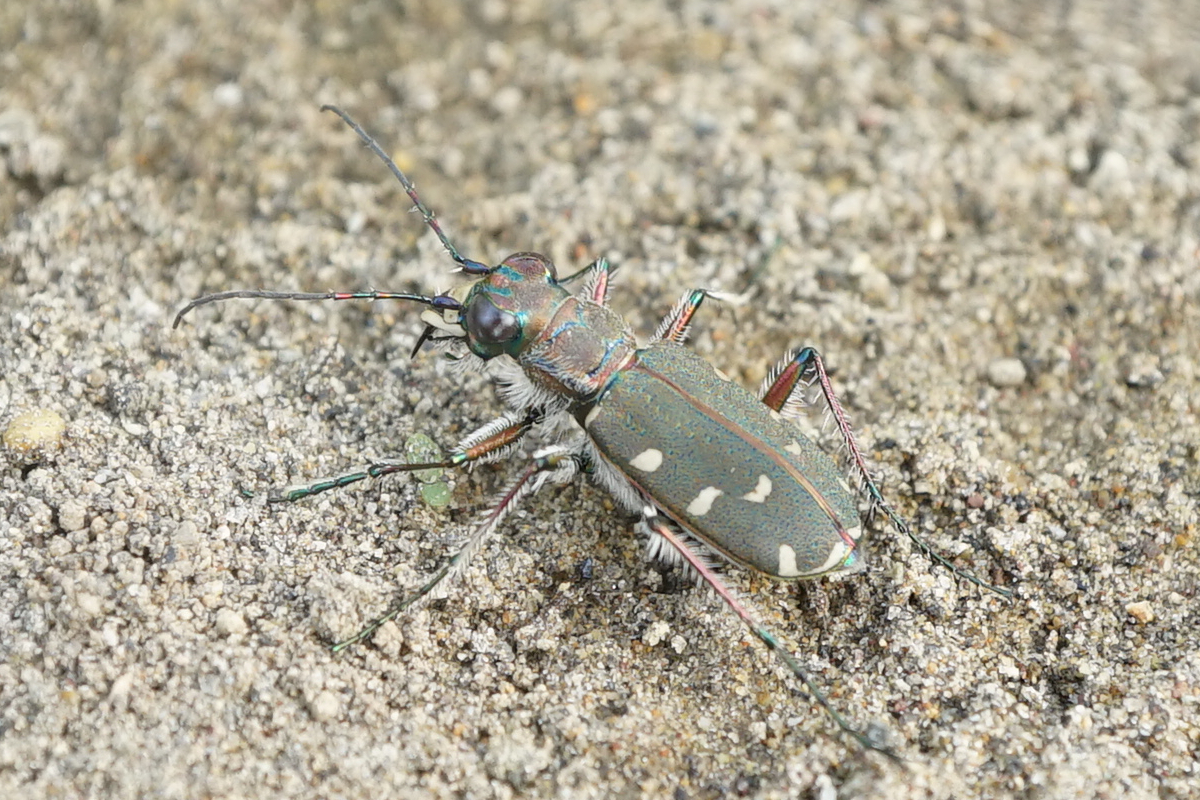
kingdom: Animalia
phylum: Arthropoda
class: Insecta
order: Coleoptera
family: Carabidae
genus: Cicindela
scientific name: Cicindela transbaicalica
